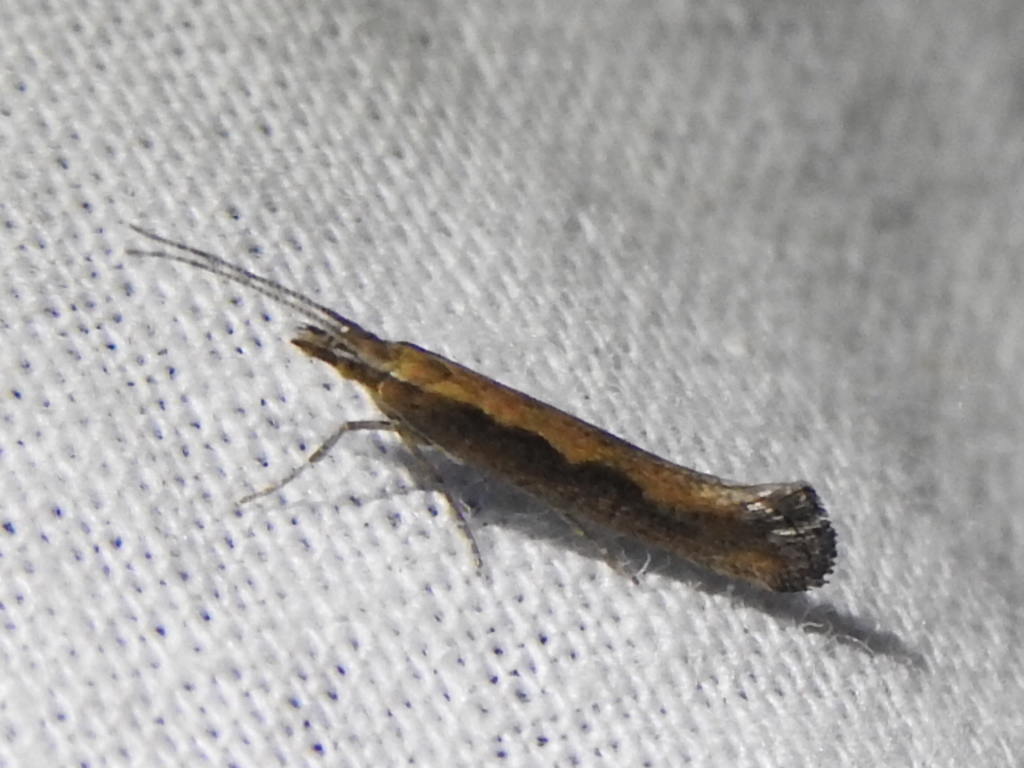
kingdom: Animalia
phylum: Arthropoda
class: Insecta
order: Lepidoptera
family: Plutellidae
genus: Plutella
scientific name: Plutella xylostella
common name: Diamond-back moth
